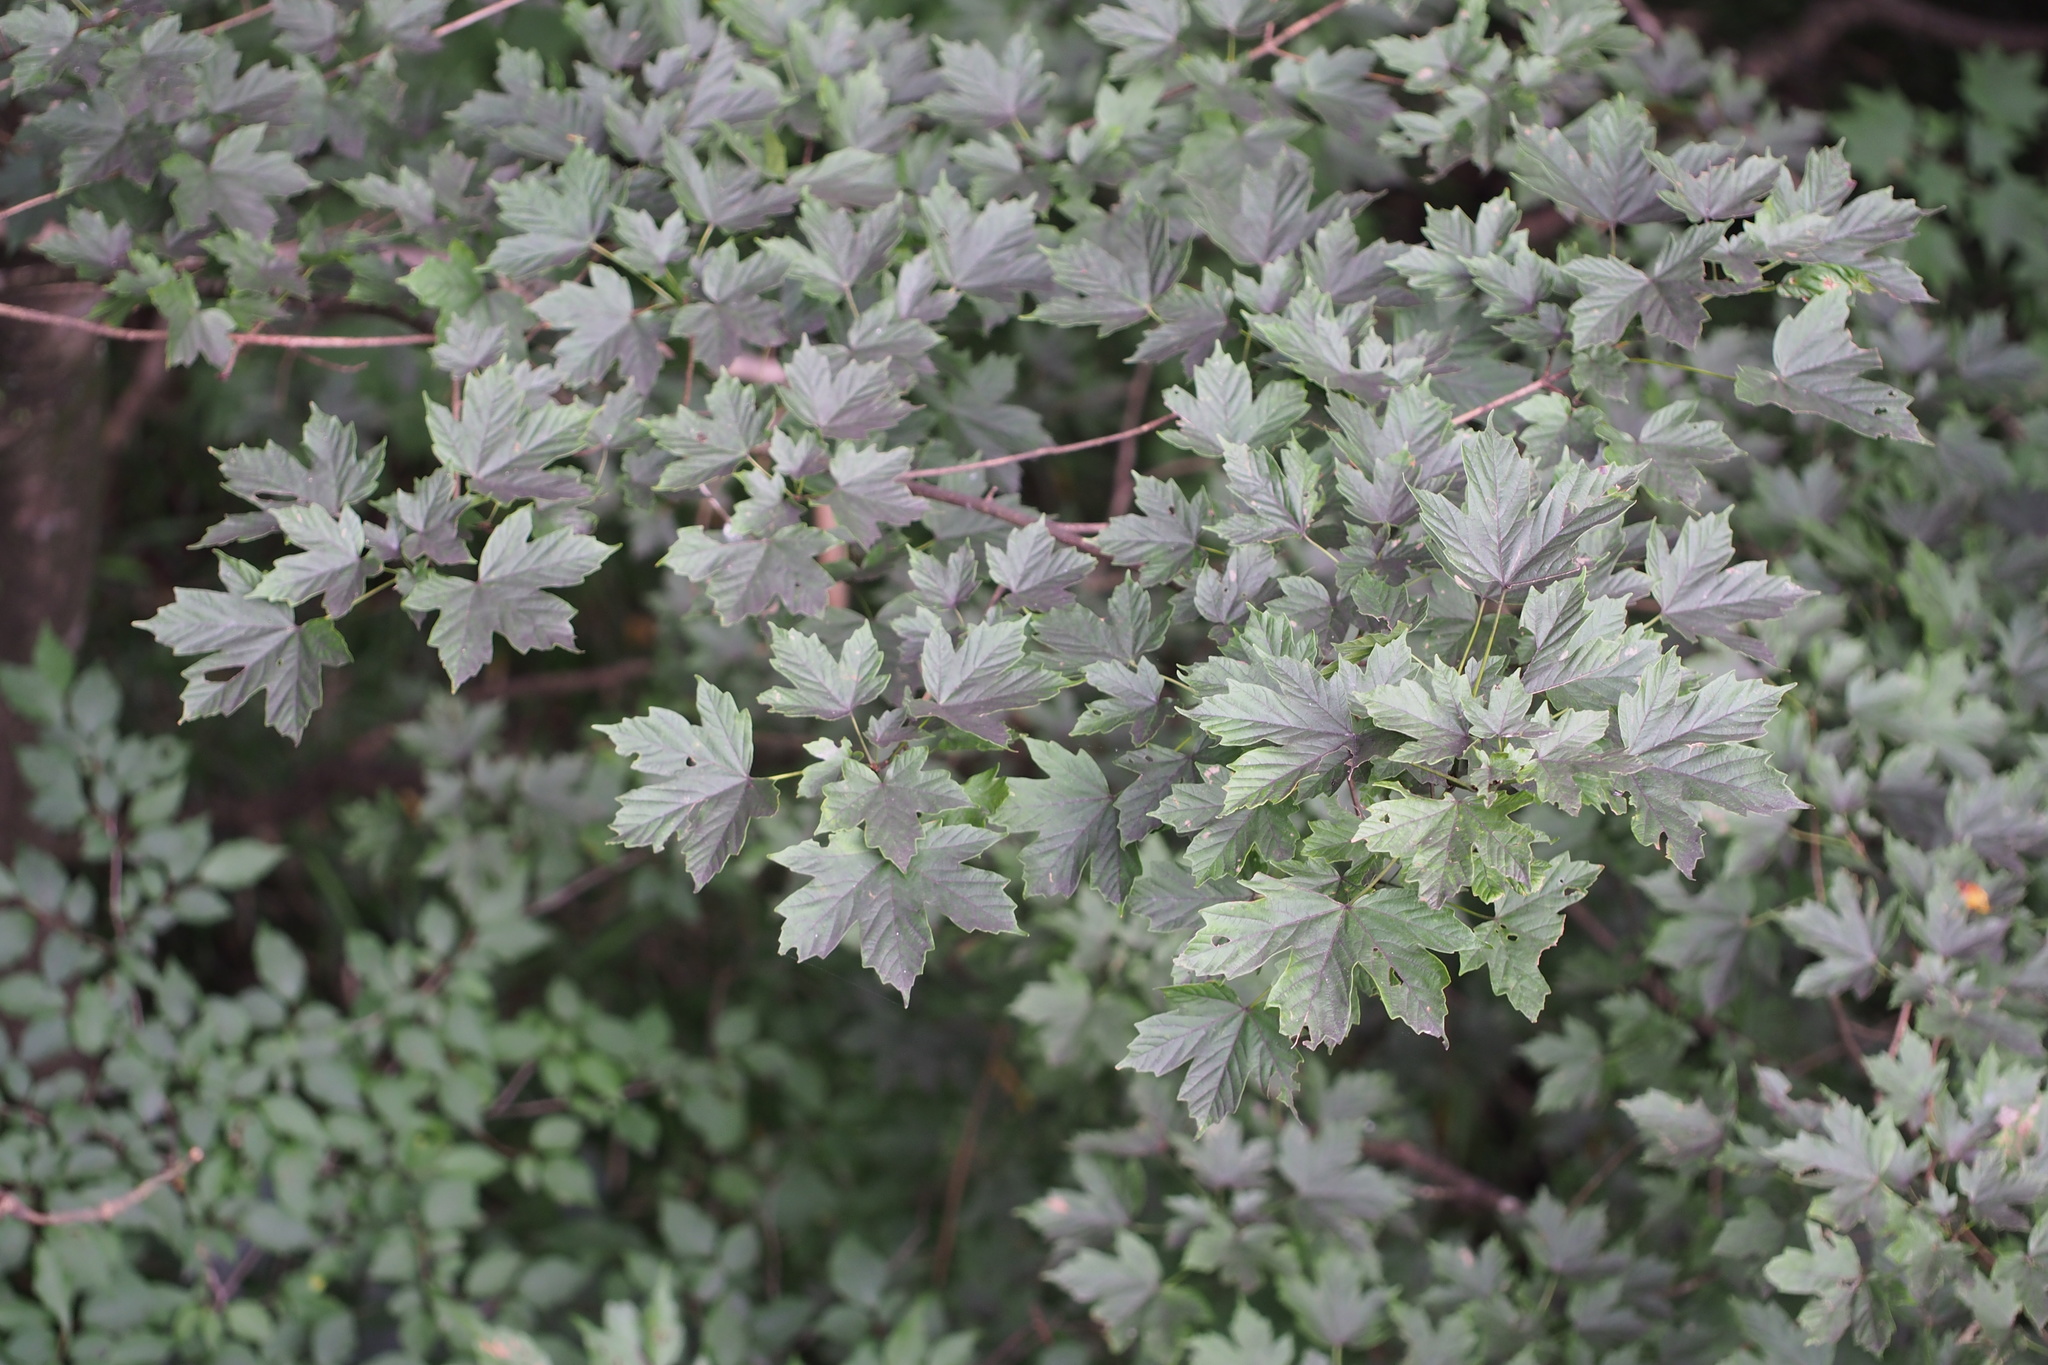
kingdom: Plantae
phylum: Tracheophyta
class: Magnoliopsida
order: Sapindales
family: Sapindaceae
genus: Acer
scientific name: Acer diabolicum
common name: Devil maple
